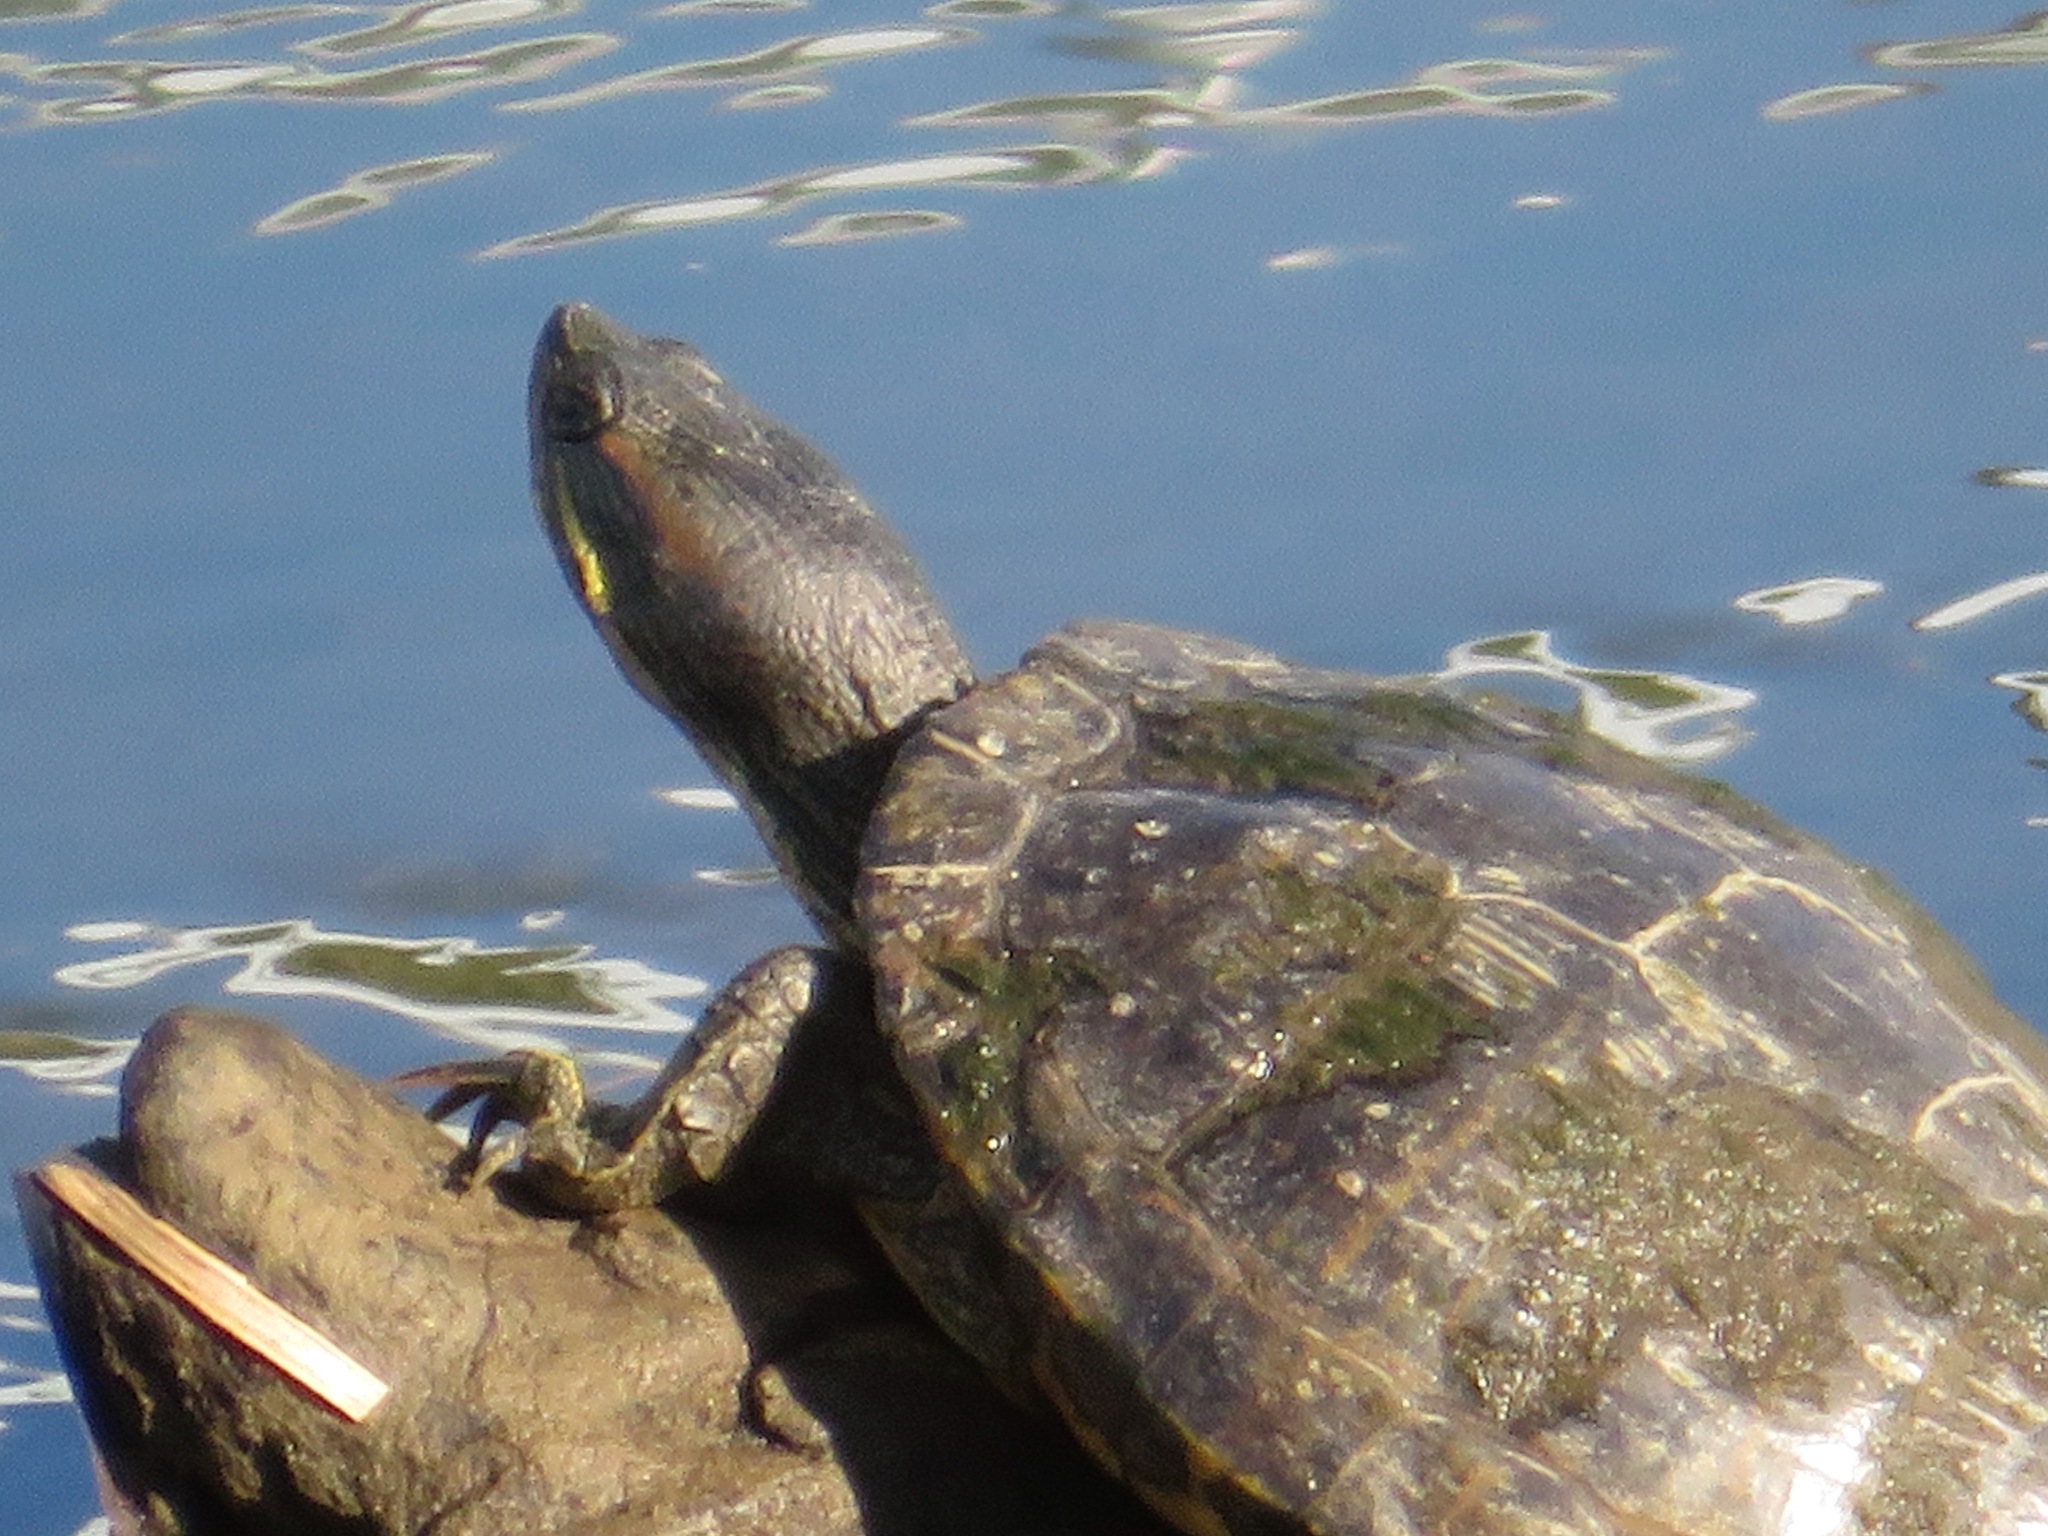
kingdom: Animalia
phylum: Chordata
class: Testudines
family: Emydidae
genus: Trachemys
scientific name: Trachemys scripta
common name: Slider
